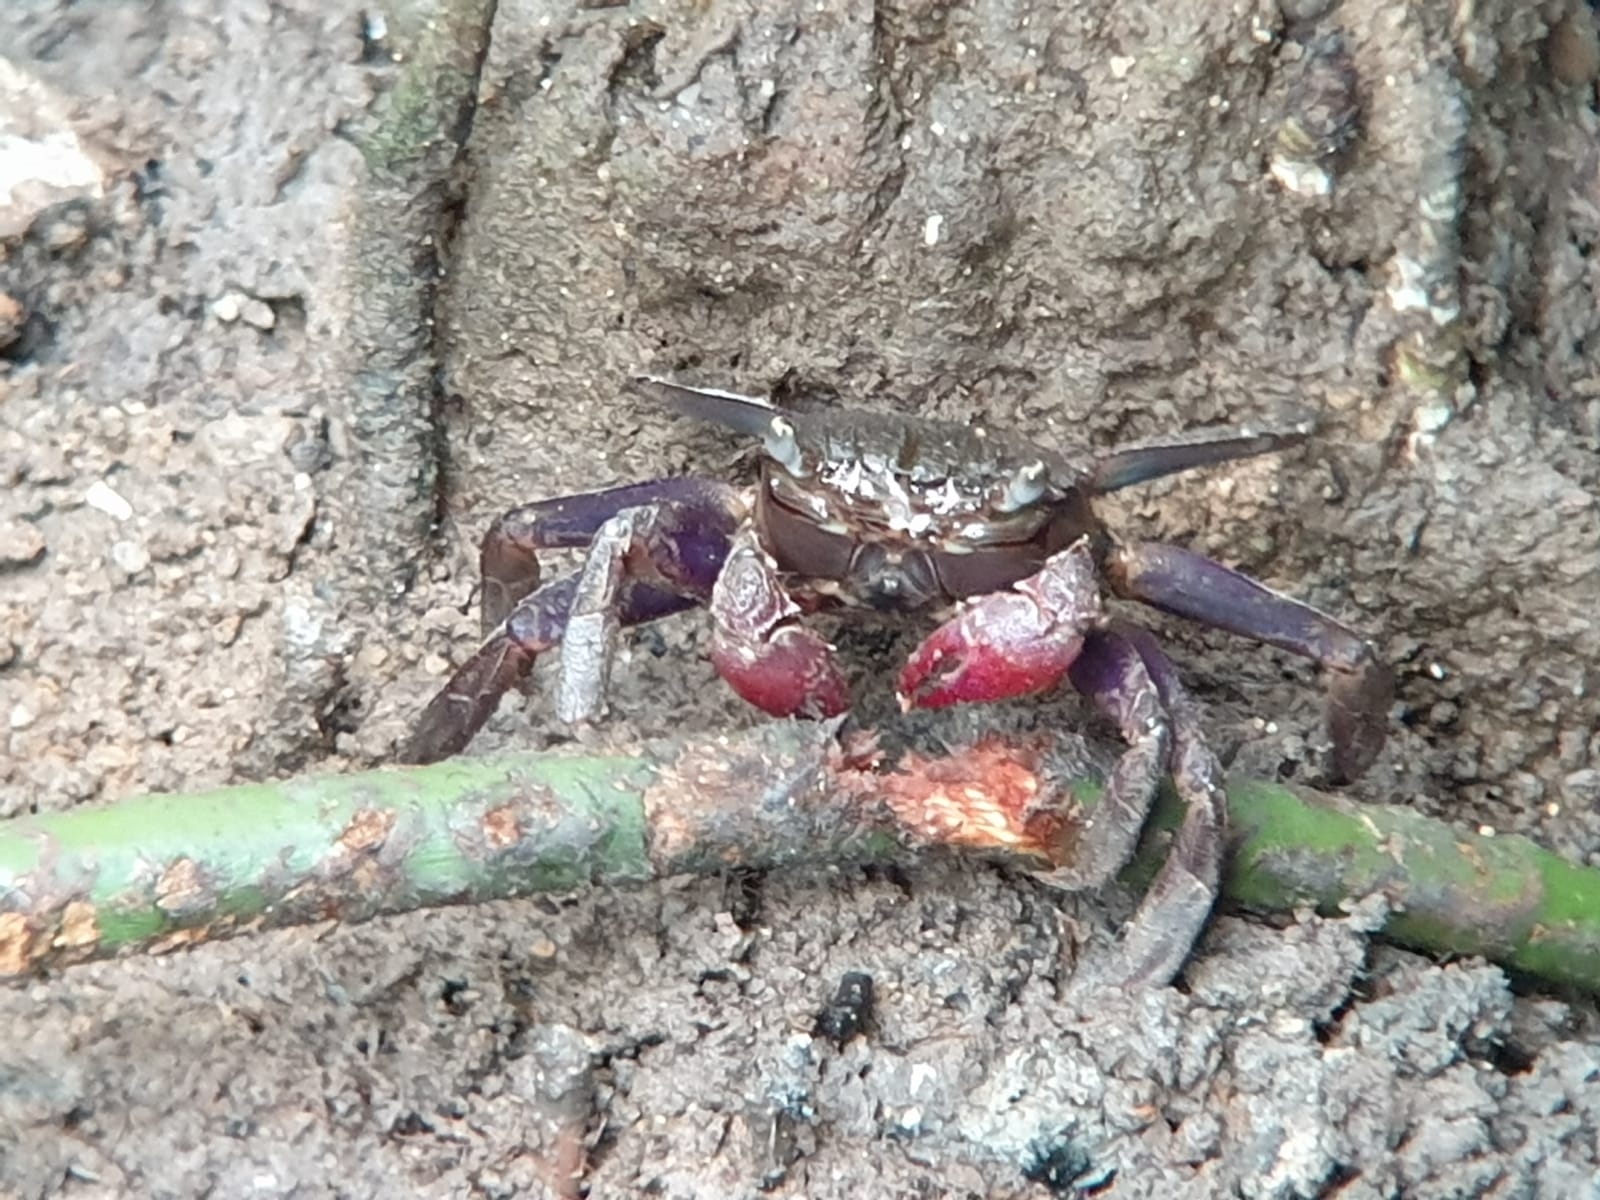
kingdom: Animalia
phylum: Arthropoda
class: Malacostraca
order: Decapoda
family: Sesarmidae
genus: Episesarma
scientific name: Episesarma chentongense
